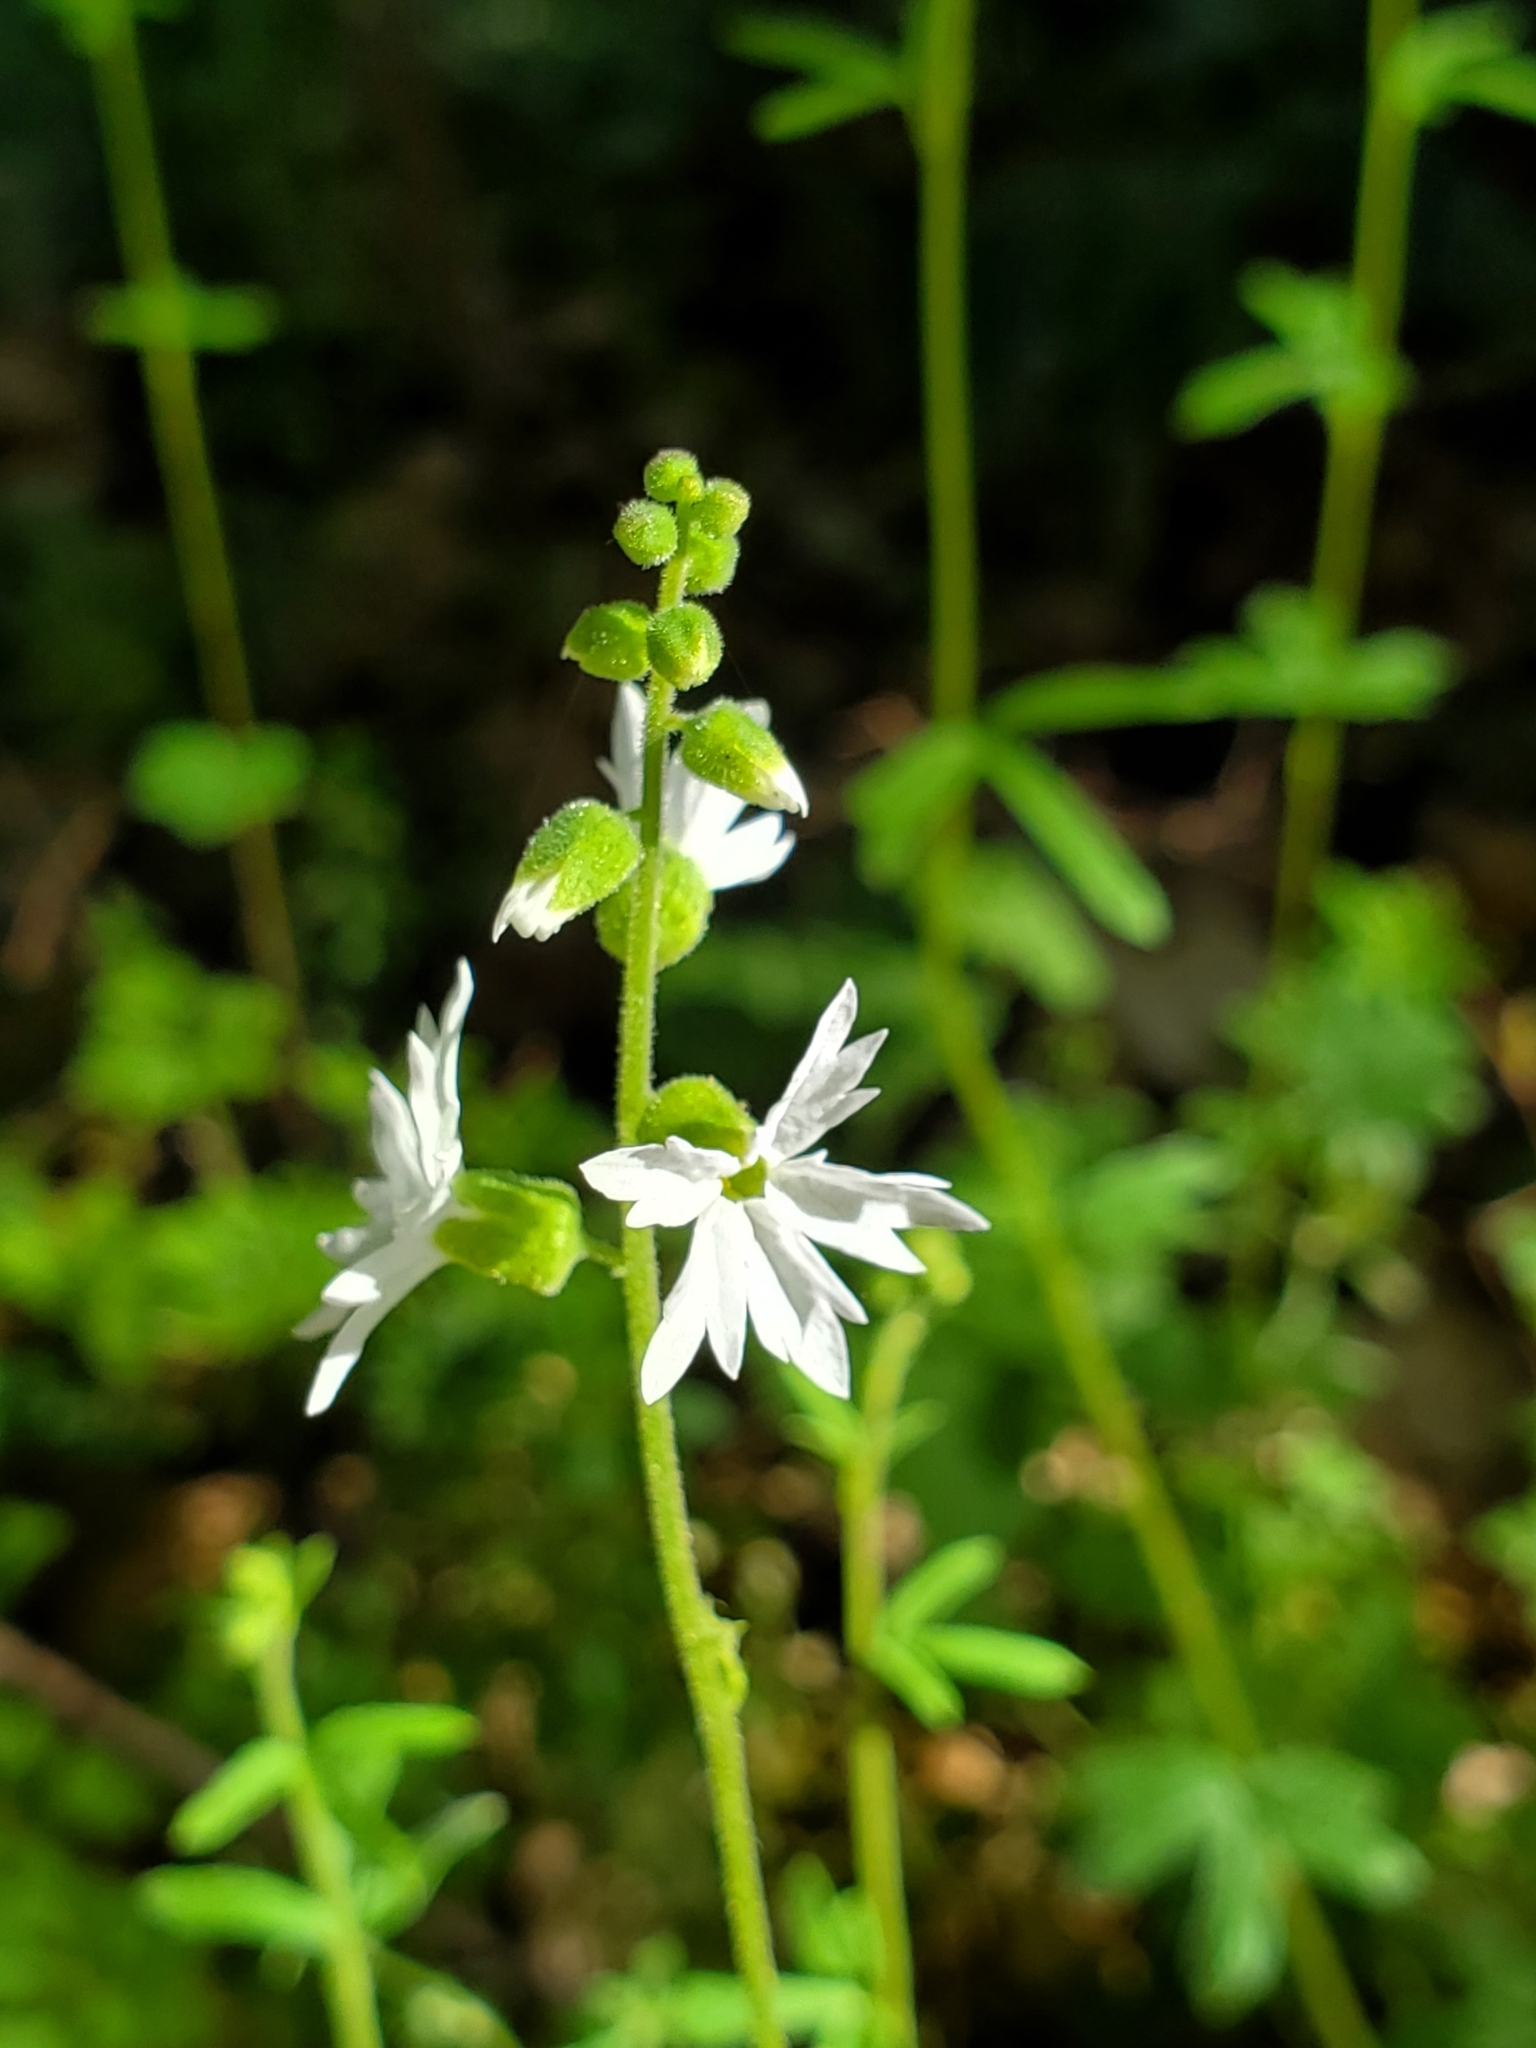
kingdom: Plantae
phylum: Tracheophyta
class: Magnoliopsida
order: Saxifragales
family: Saxifragaceae
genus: Lithophragma
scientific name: Lithophragma heterophyllum
